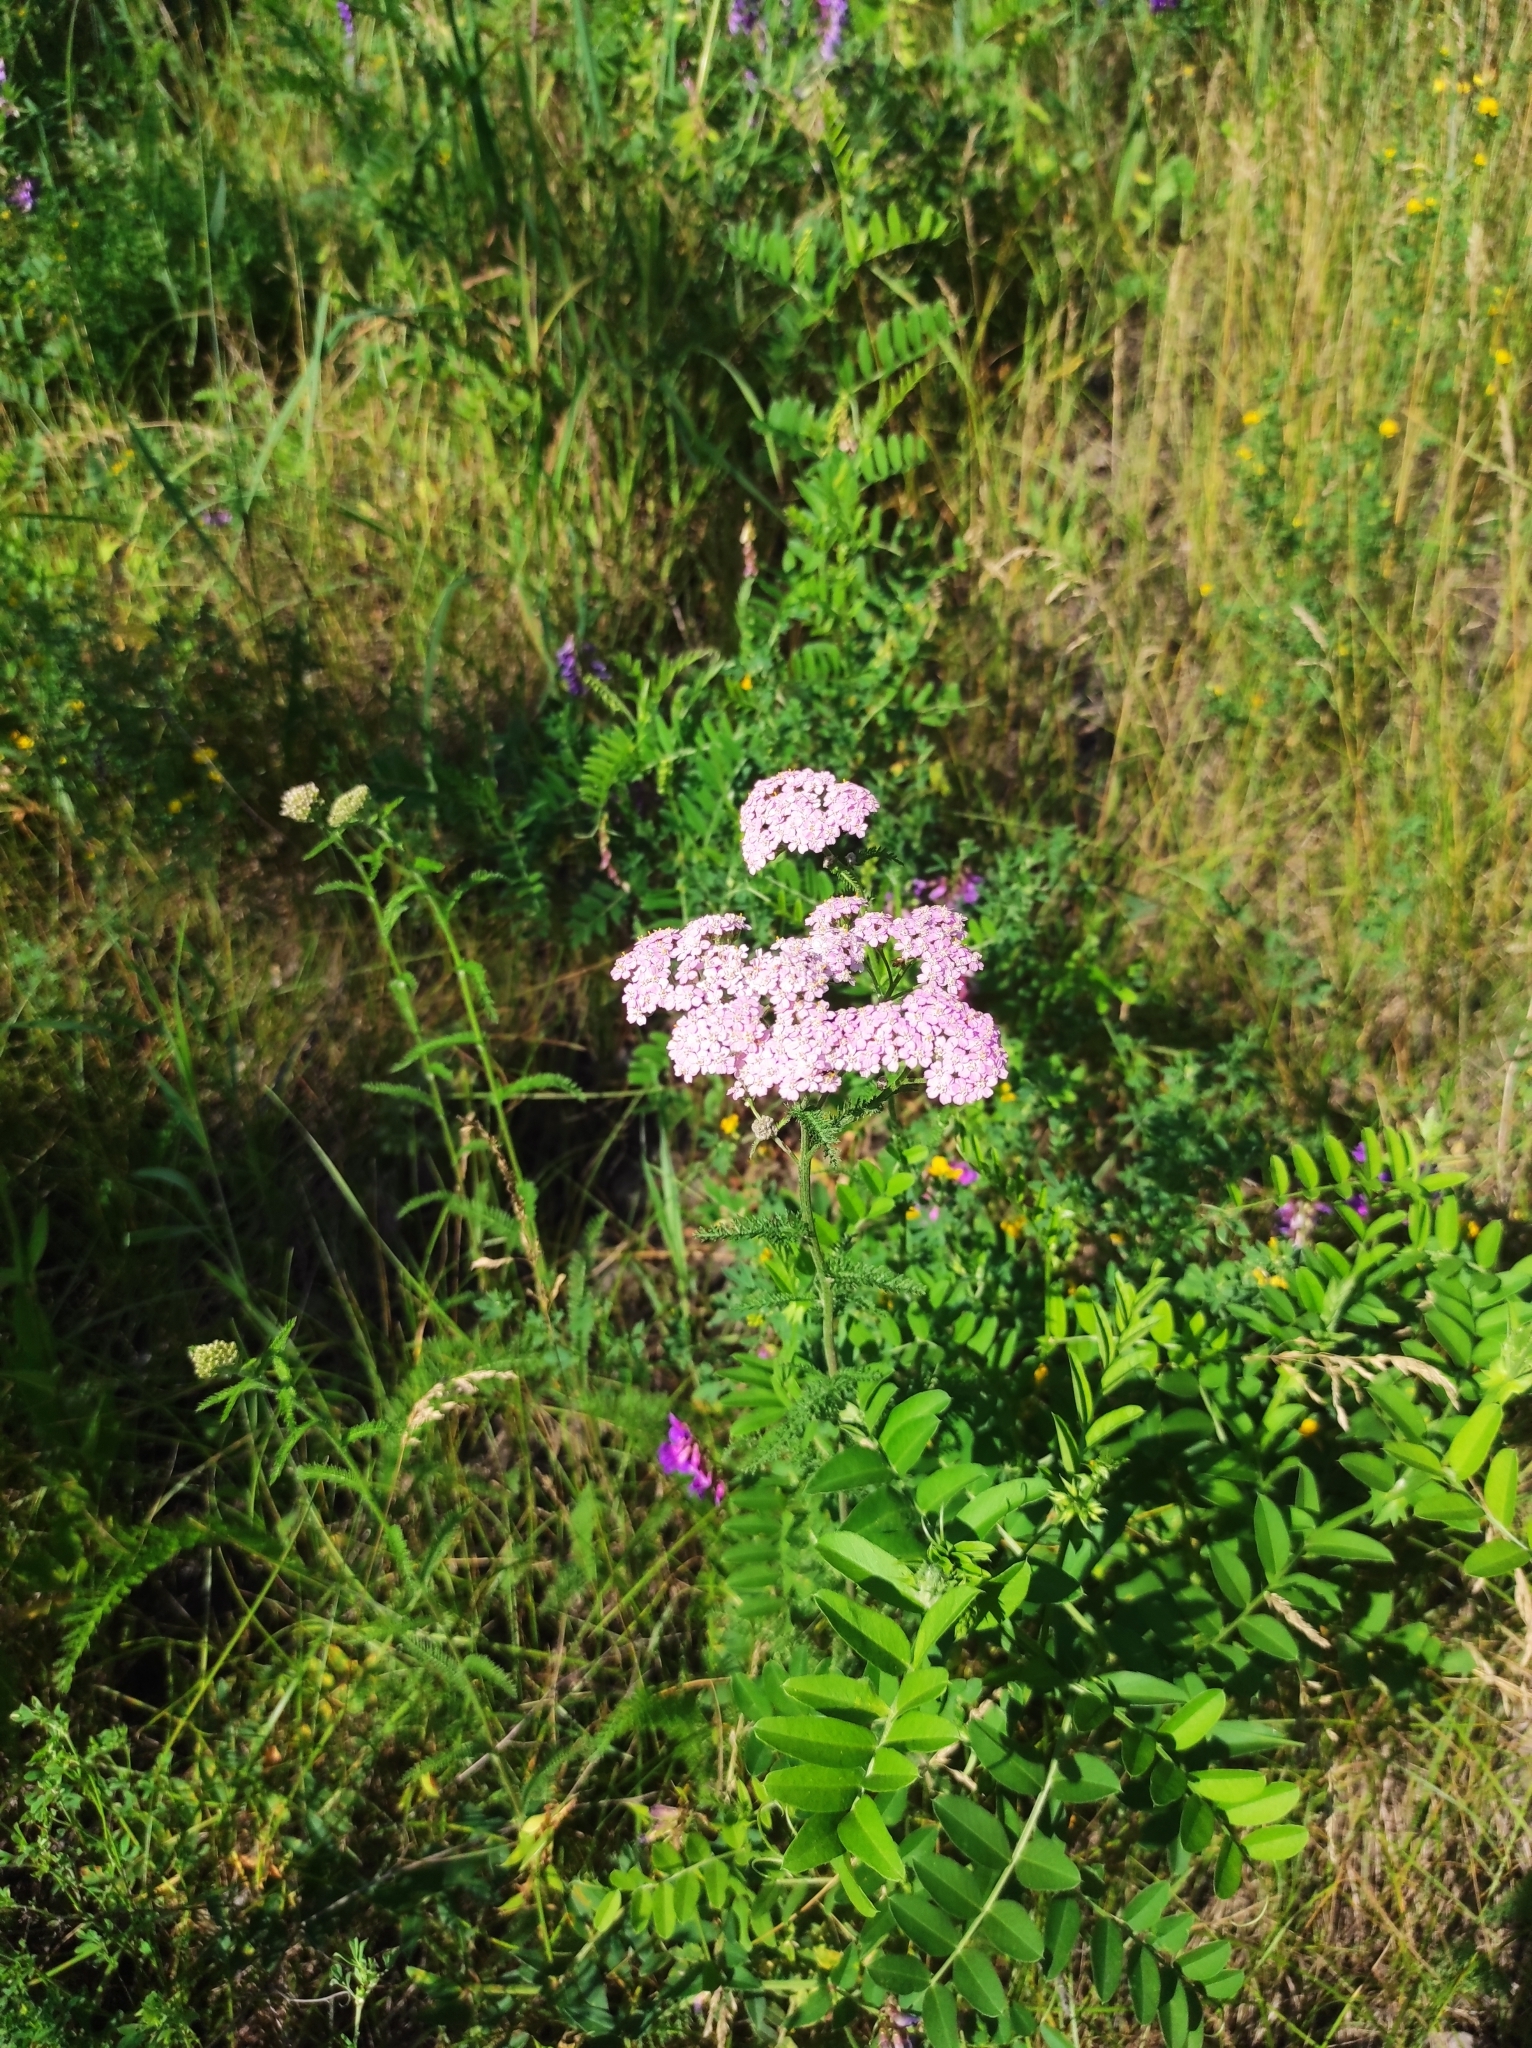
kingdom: Plantae
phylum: Tracheophyta
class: Magnoliopsida
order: Asterales
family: Asteraceae
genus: Achillea
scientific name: Achillea asiatica
